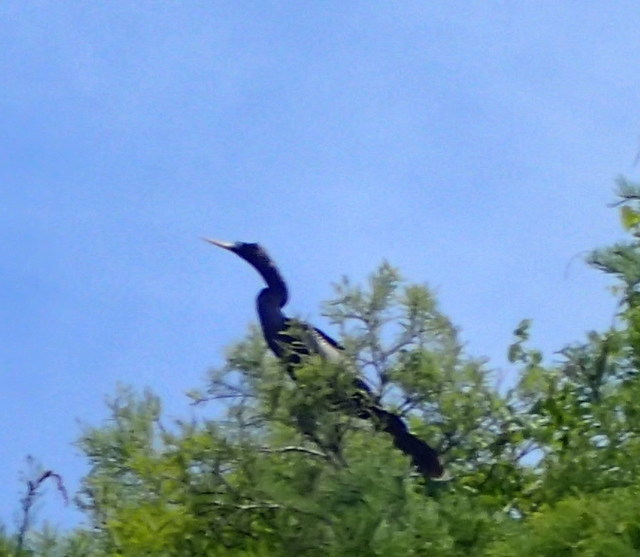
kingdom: Animalia
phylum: Chordata
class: Aves
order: Suliformes
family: Anhingidae
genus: Anhinga
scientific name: Anhinga anhinga
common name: Anhinga
